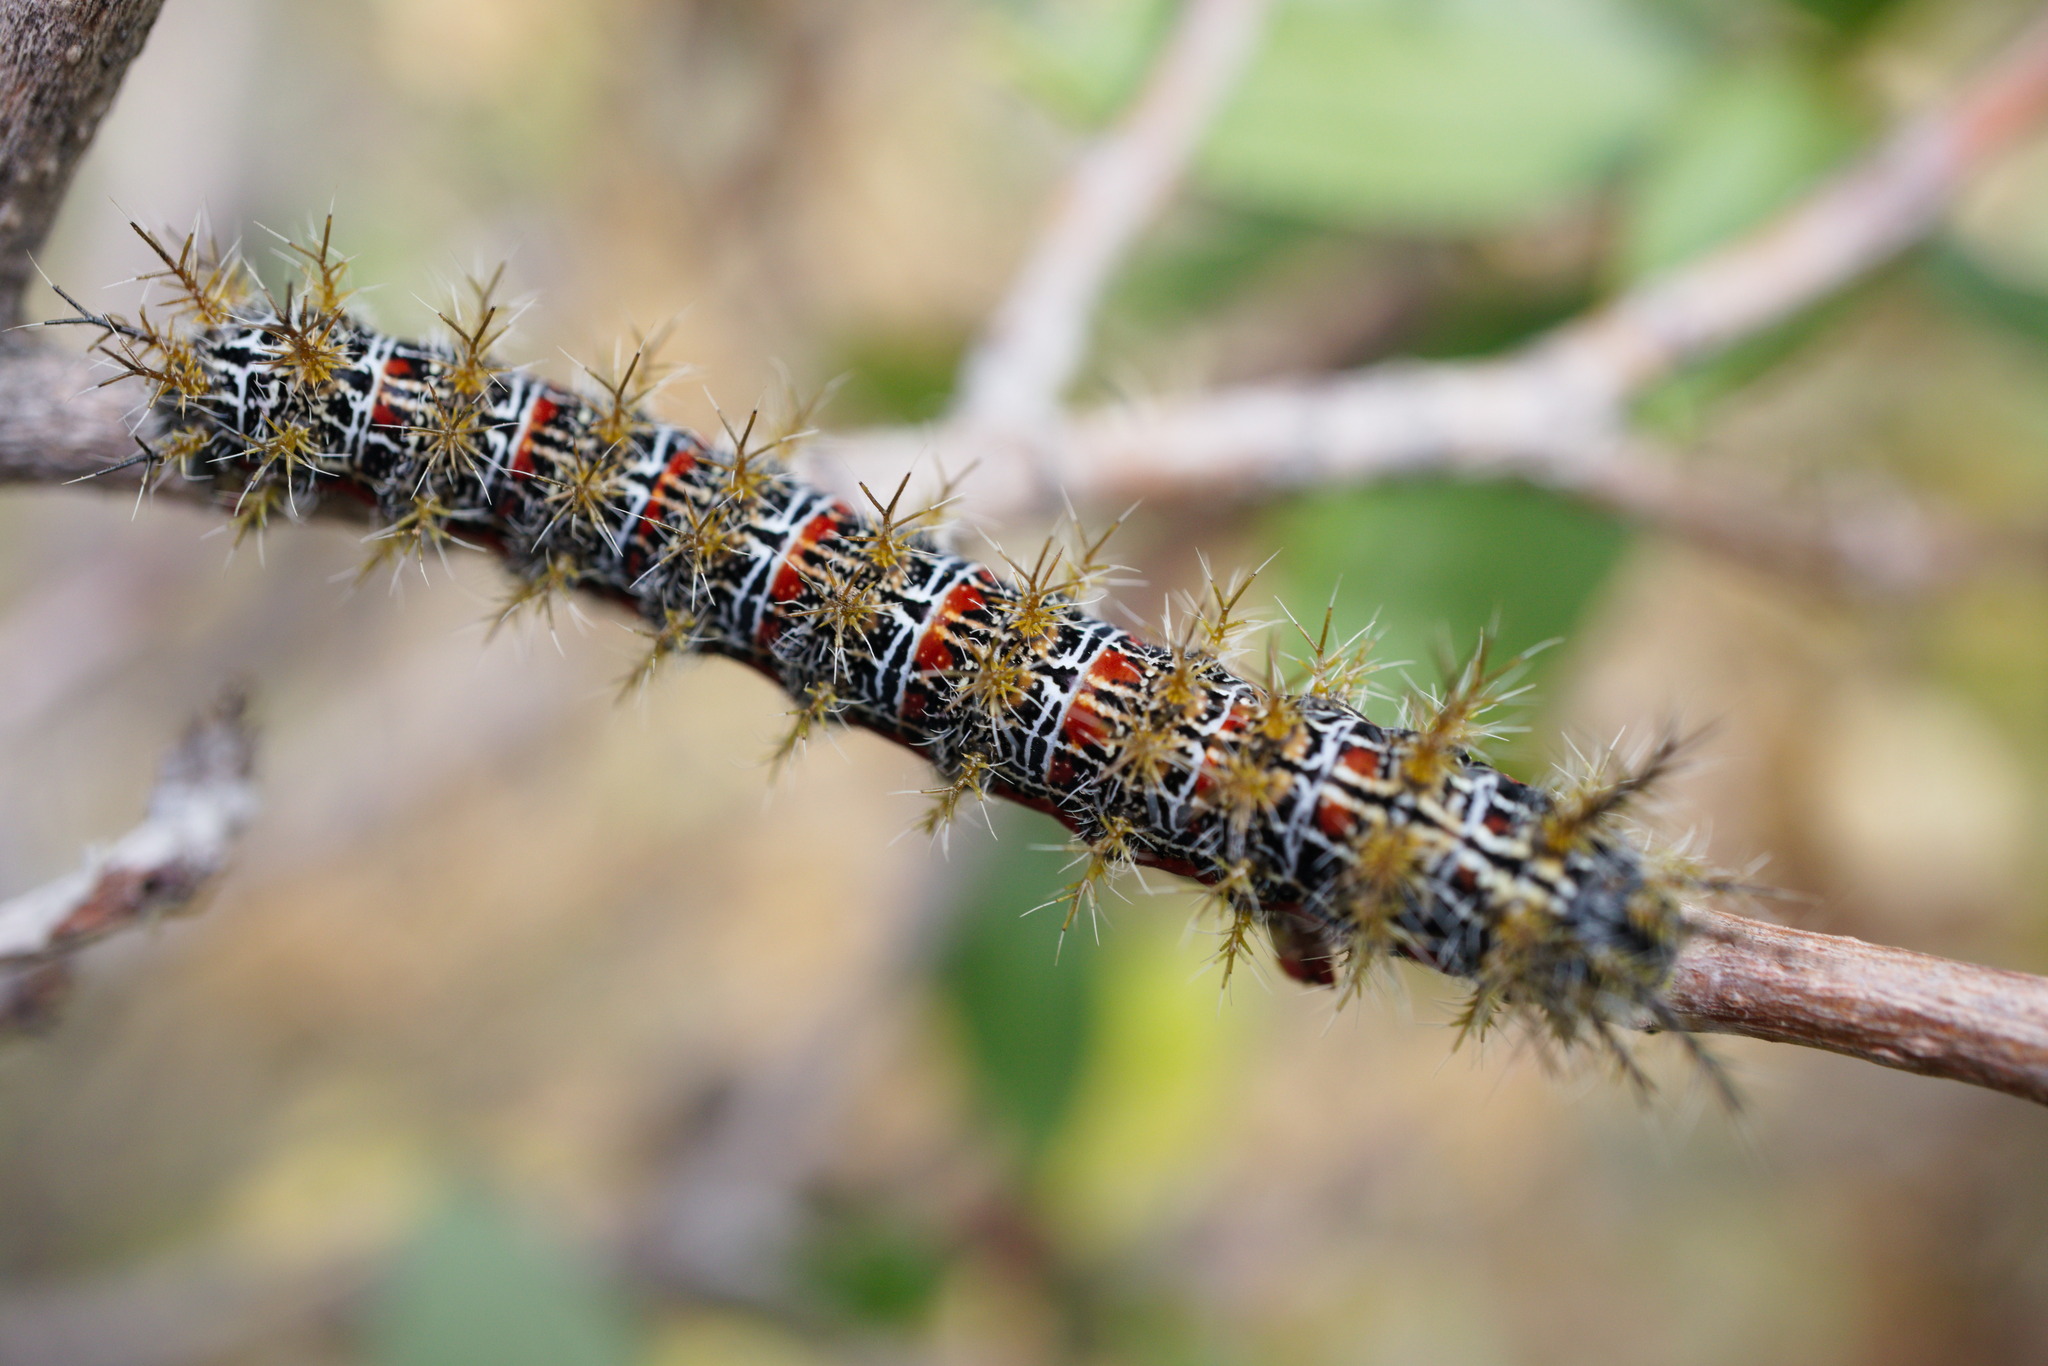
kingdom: Animalia
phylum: Arthropoda
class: Insecta
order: Lepidoptera
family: Saturniidae
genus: Ormiscodes
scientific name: Ormiscodes amphinome
